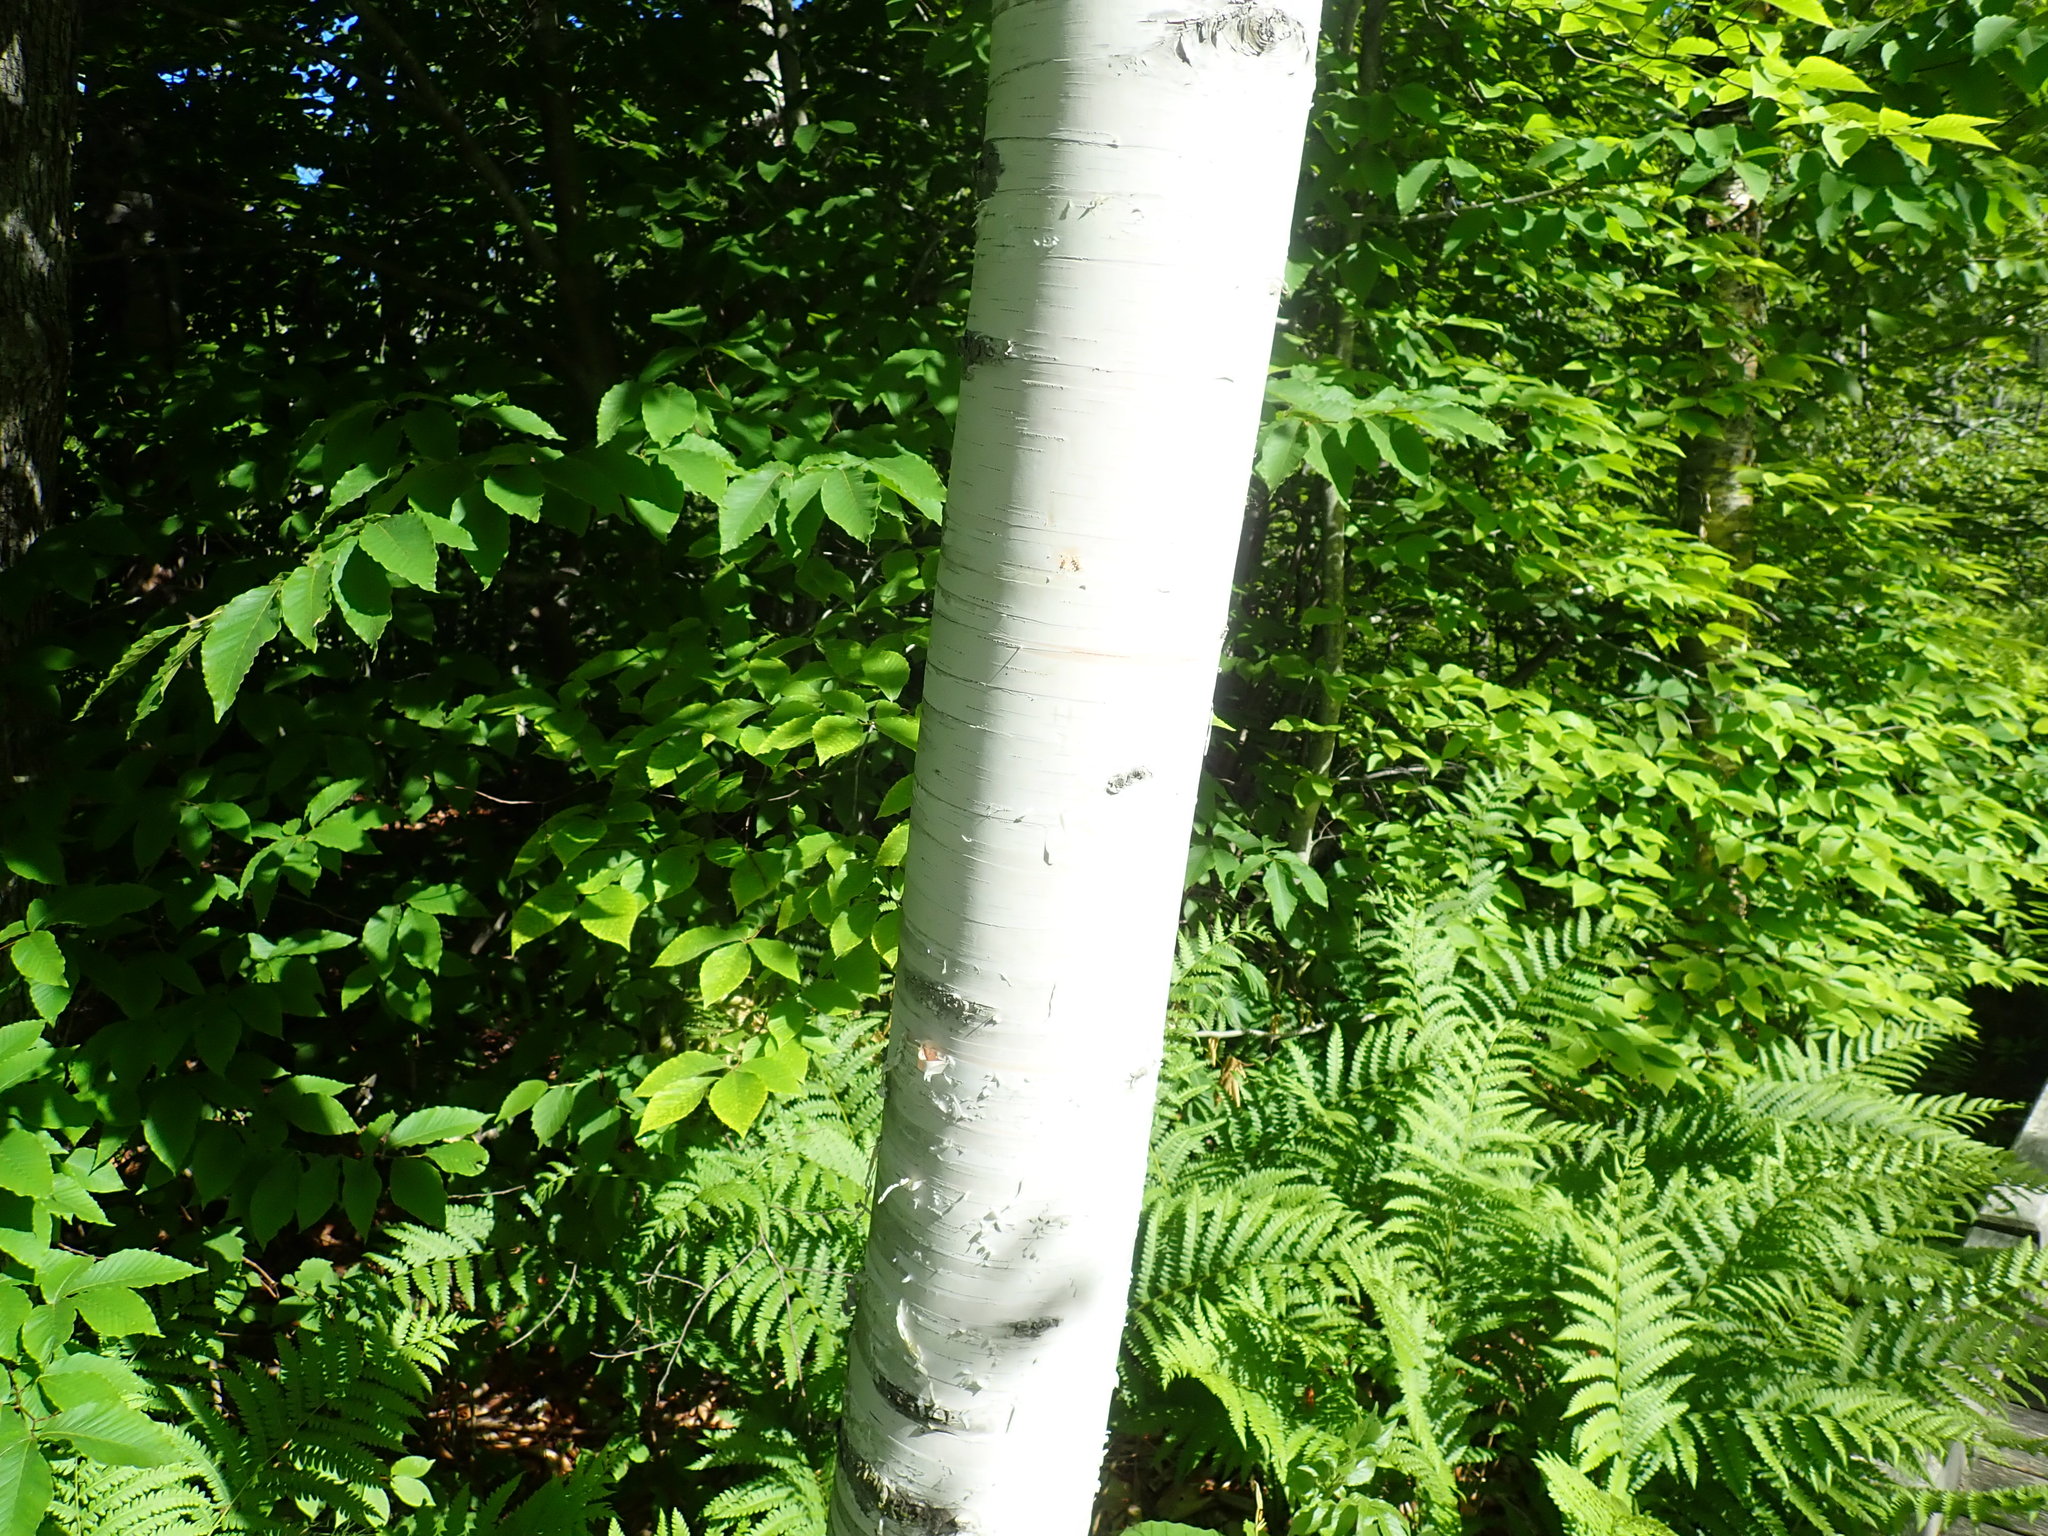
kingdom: Plantae
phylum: Tracheophyta
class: Magnoliopsida
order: Fagales
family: Betulaceae
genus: Betula
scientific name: Betula papyrifera
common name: Paper birch
